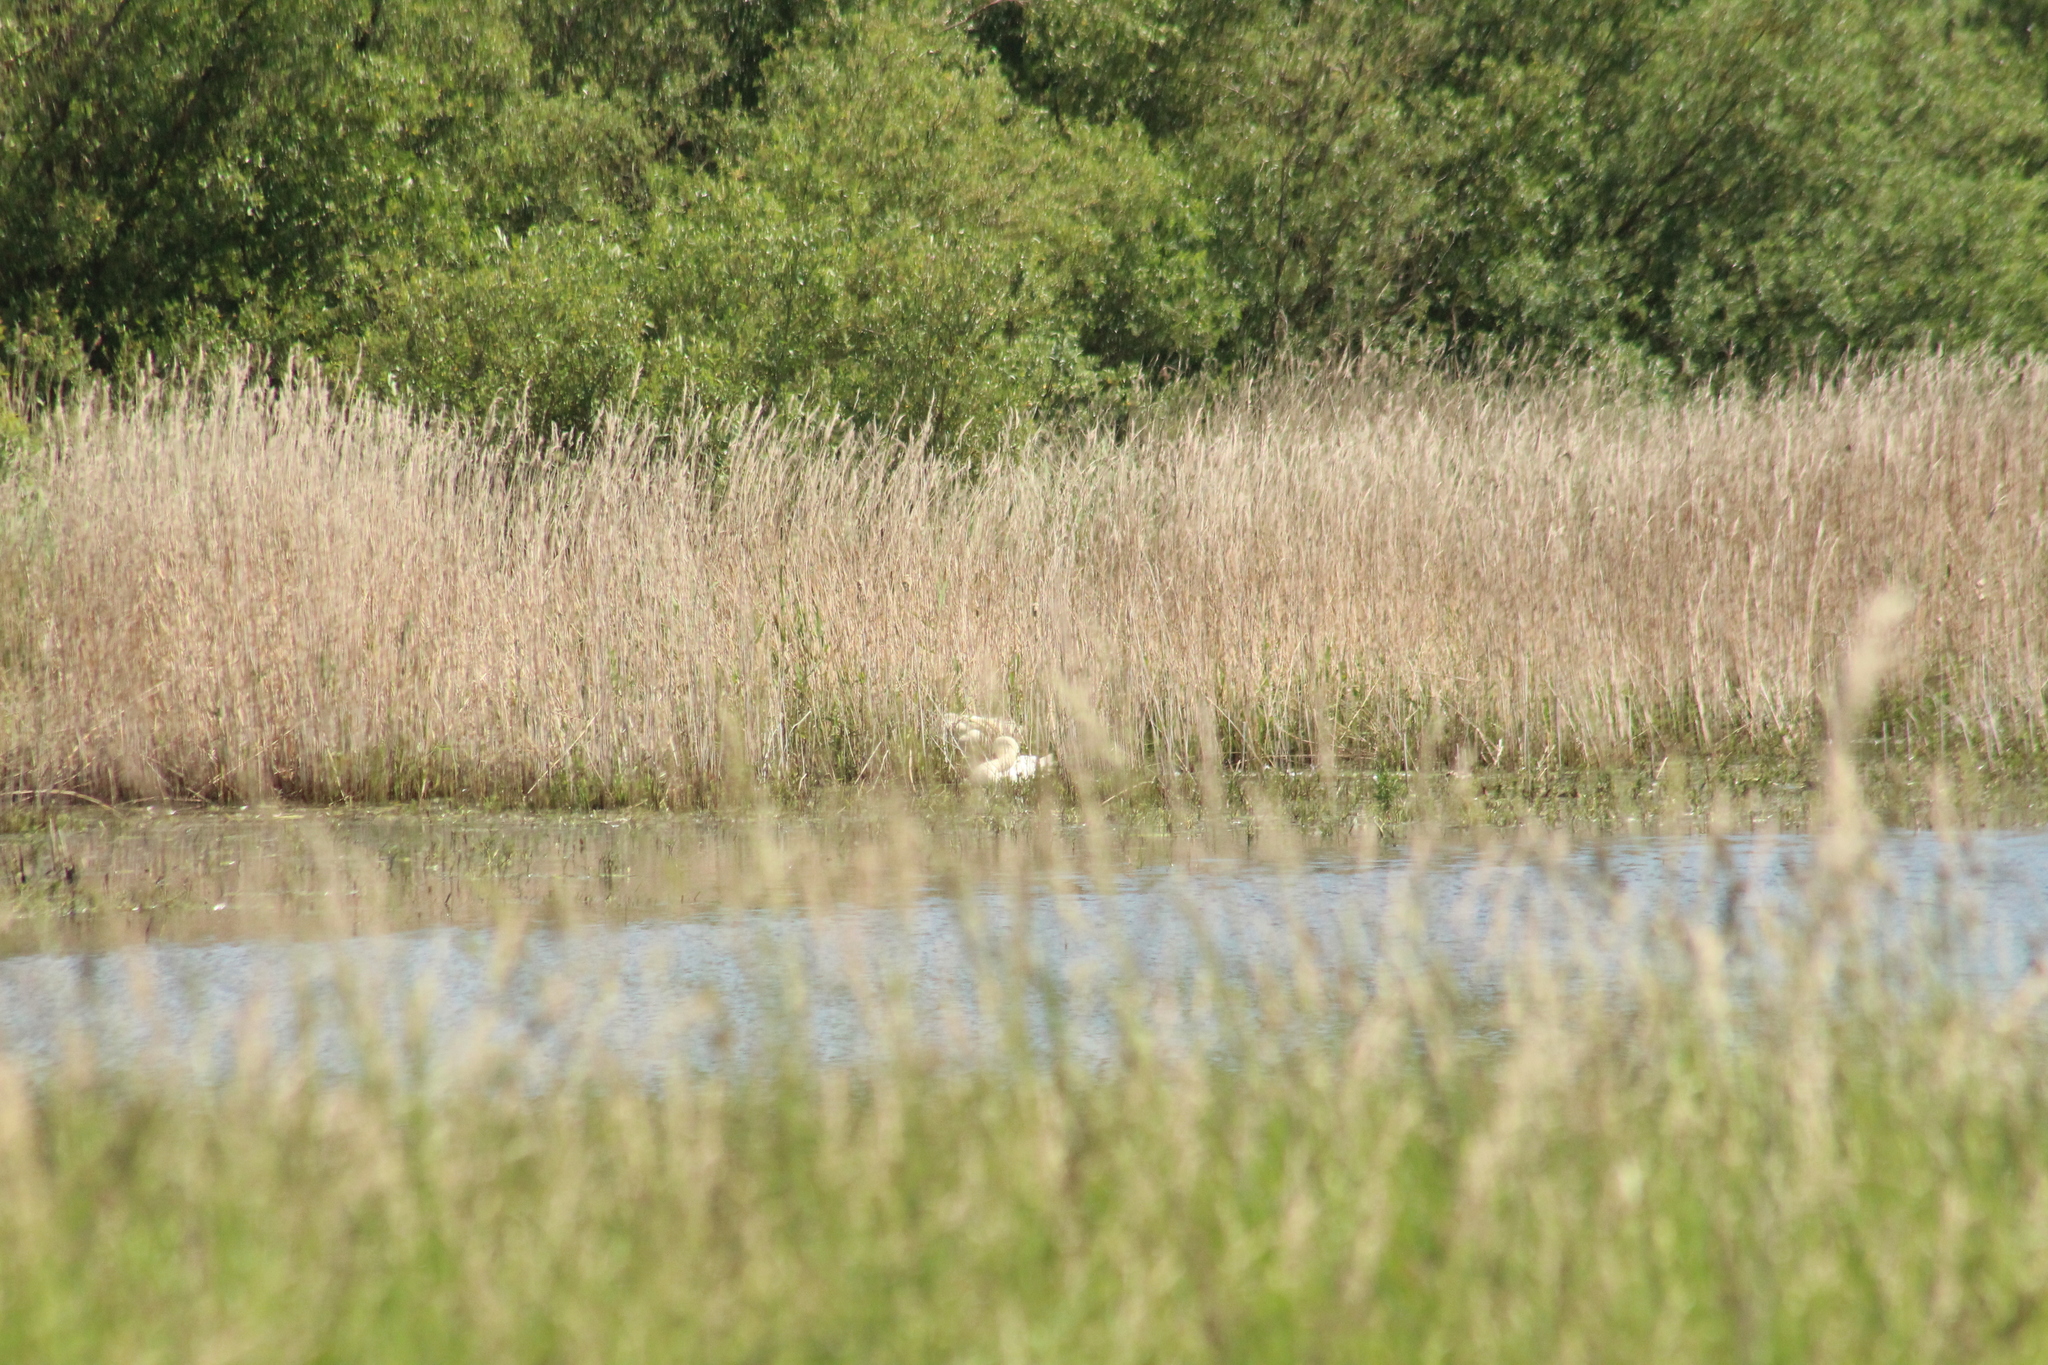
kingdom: Animalia
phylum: Chordata
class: Aves
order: Anseriformes
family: Anatidae
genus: Cygnus
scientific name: Cygnus olor
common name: Mute swan
